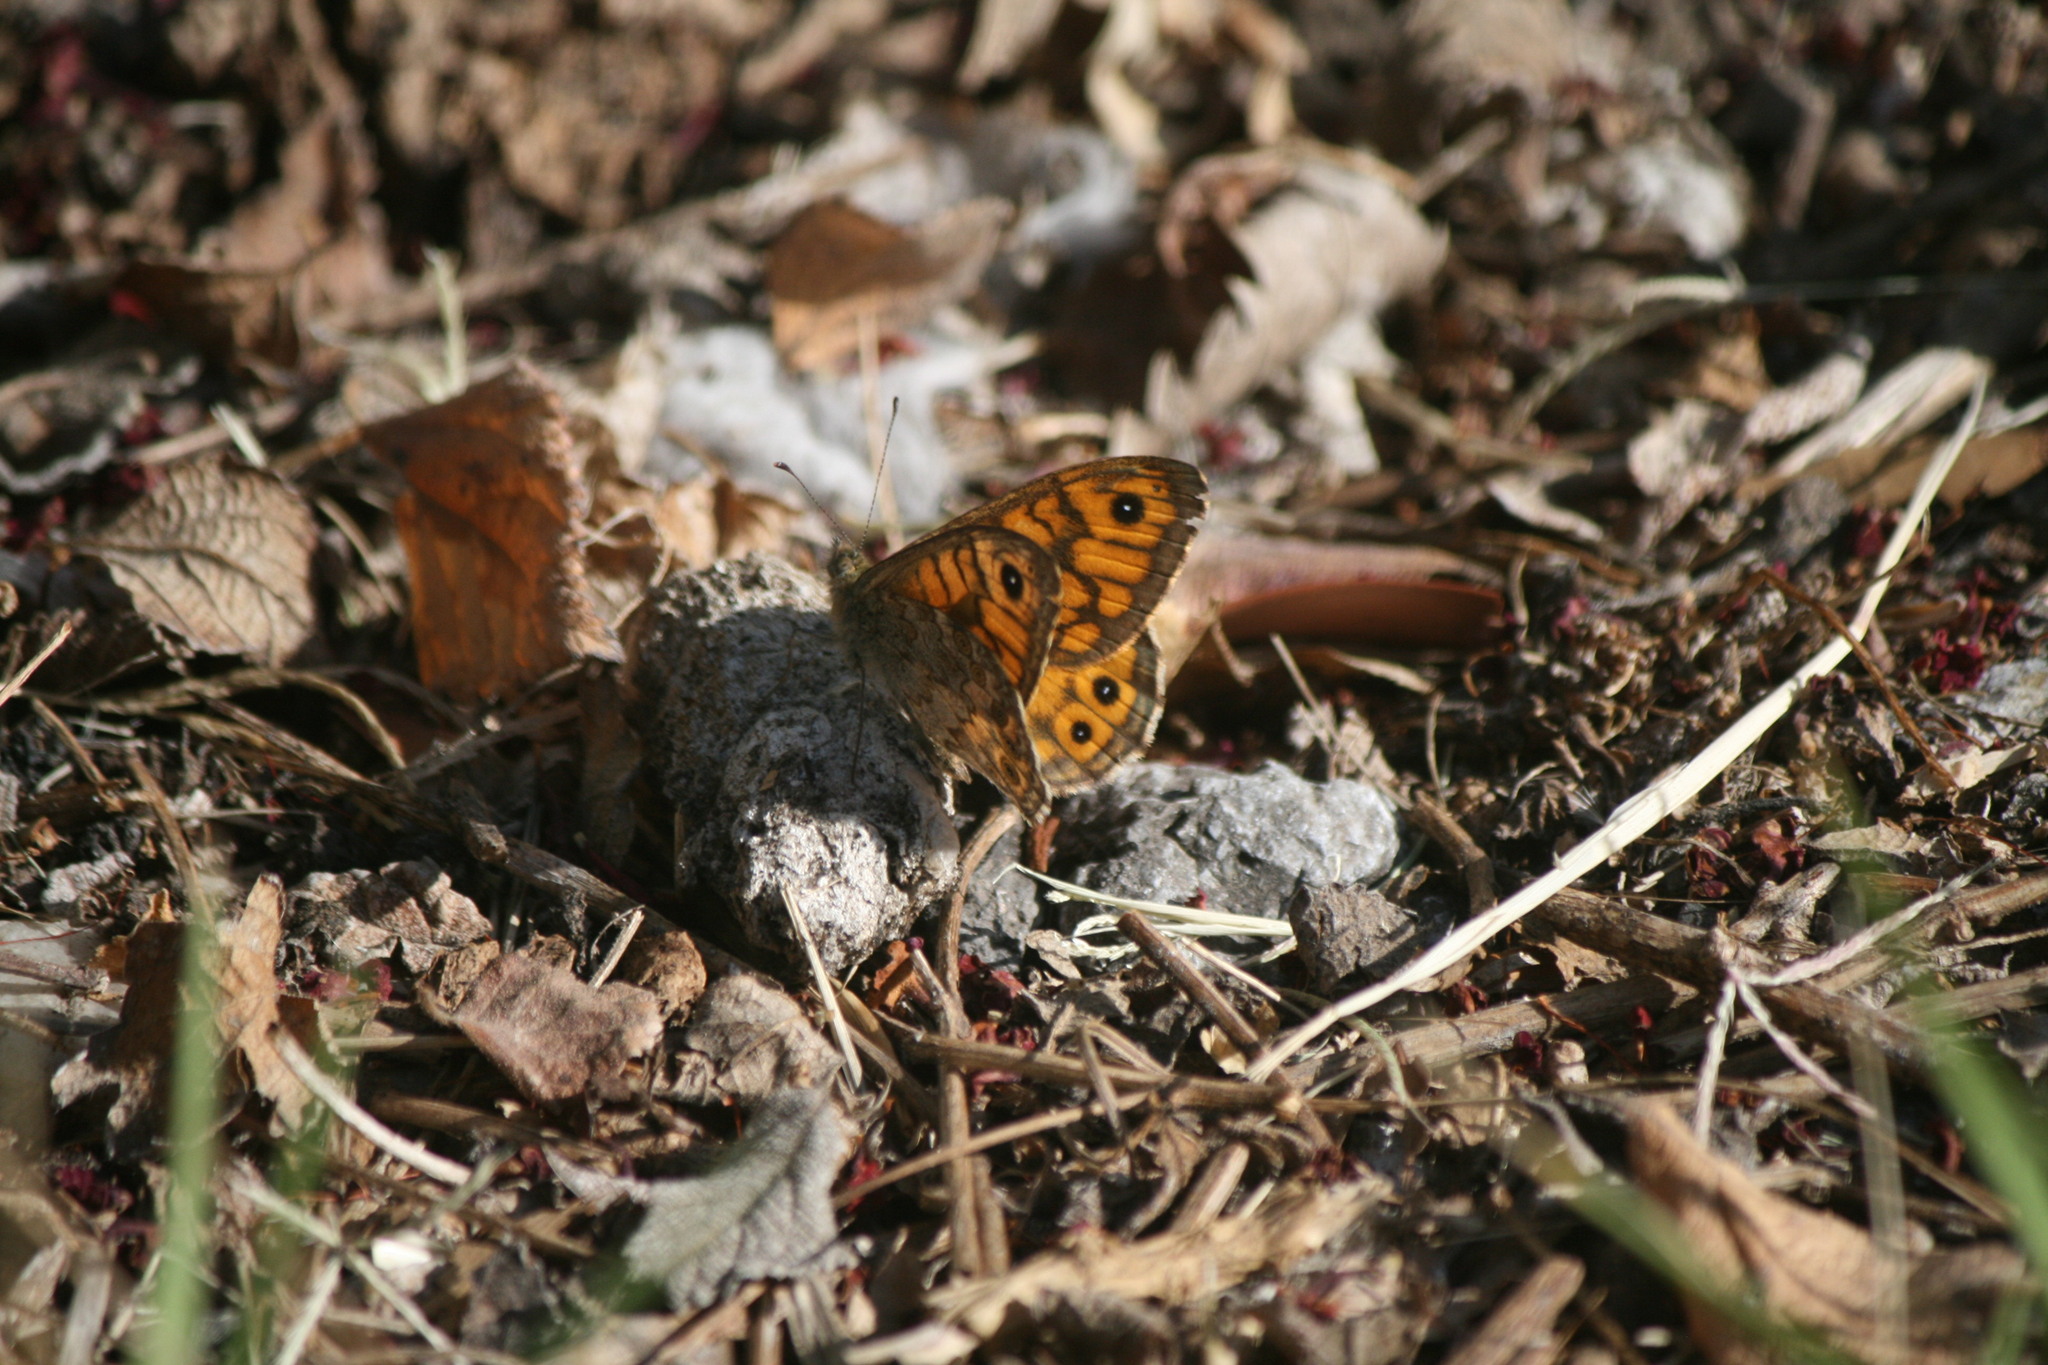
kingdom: Animalia
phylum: Arthropoda
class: Insecta
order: Lepidoptera
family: Nymphalidae
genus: Pararge
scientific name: Pararge Lasiommata megera
